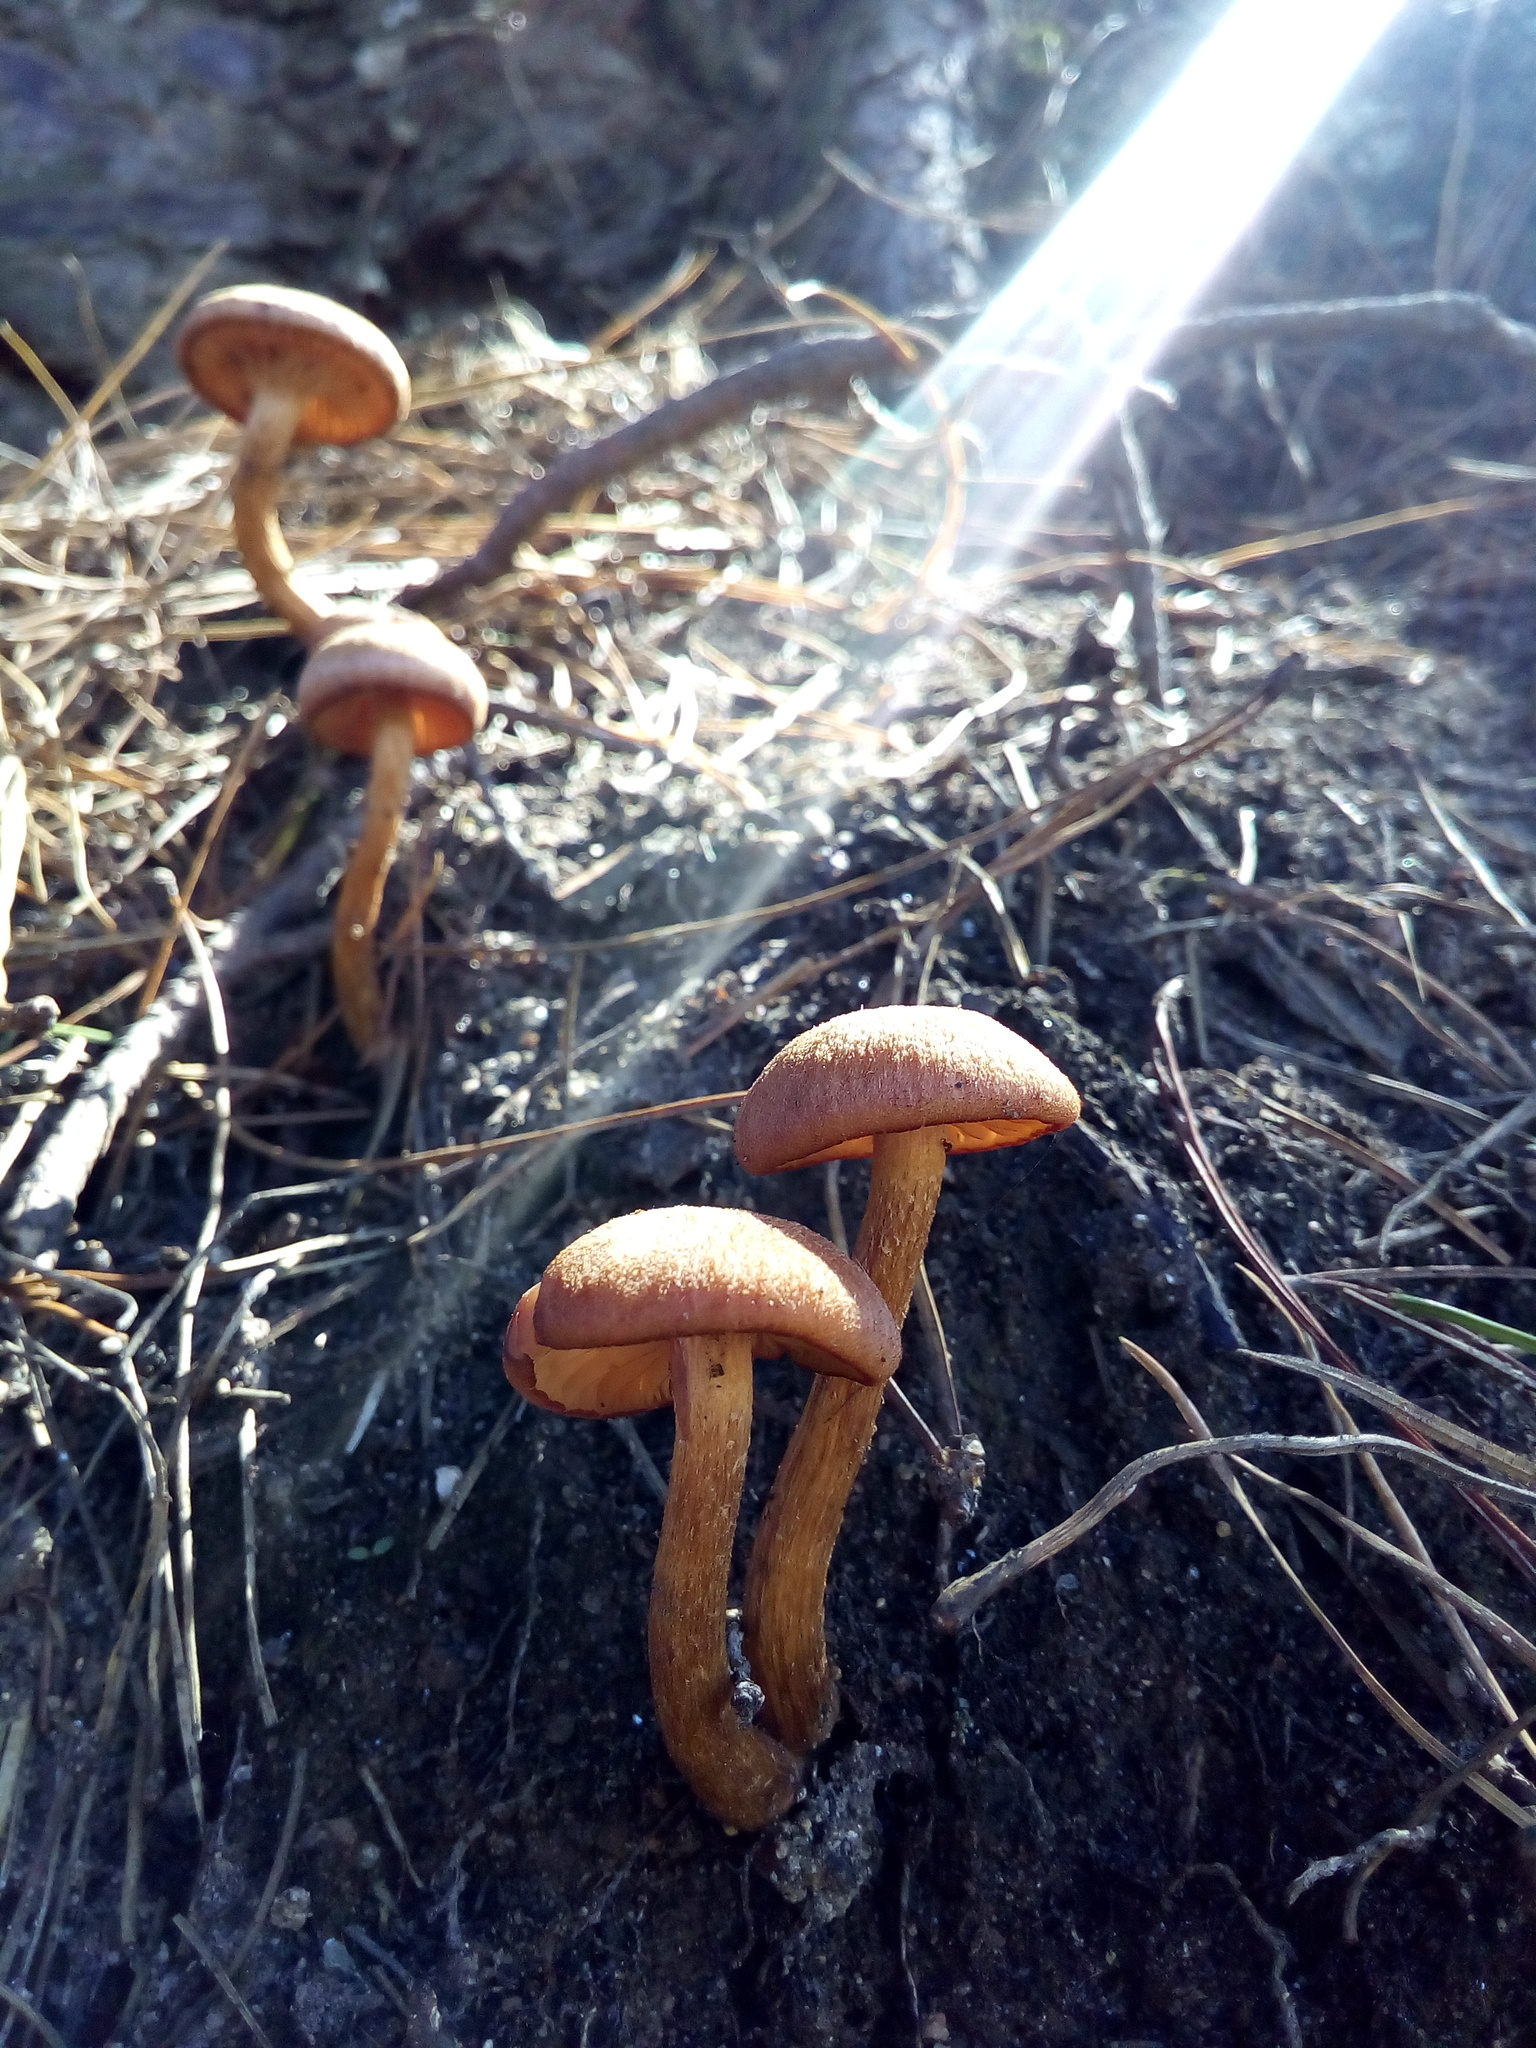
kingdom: Fungi
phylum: Basidiomycota
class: Agaricomycetes
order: Agaricales
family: Hydnangiaceae
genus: Laccaria
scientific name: Laccaria laccata
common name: Deceiver
